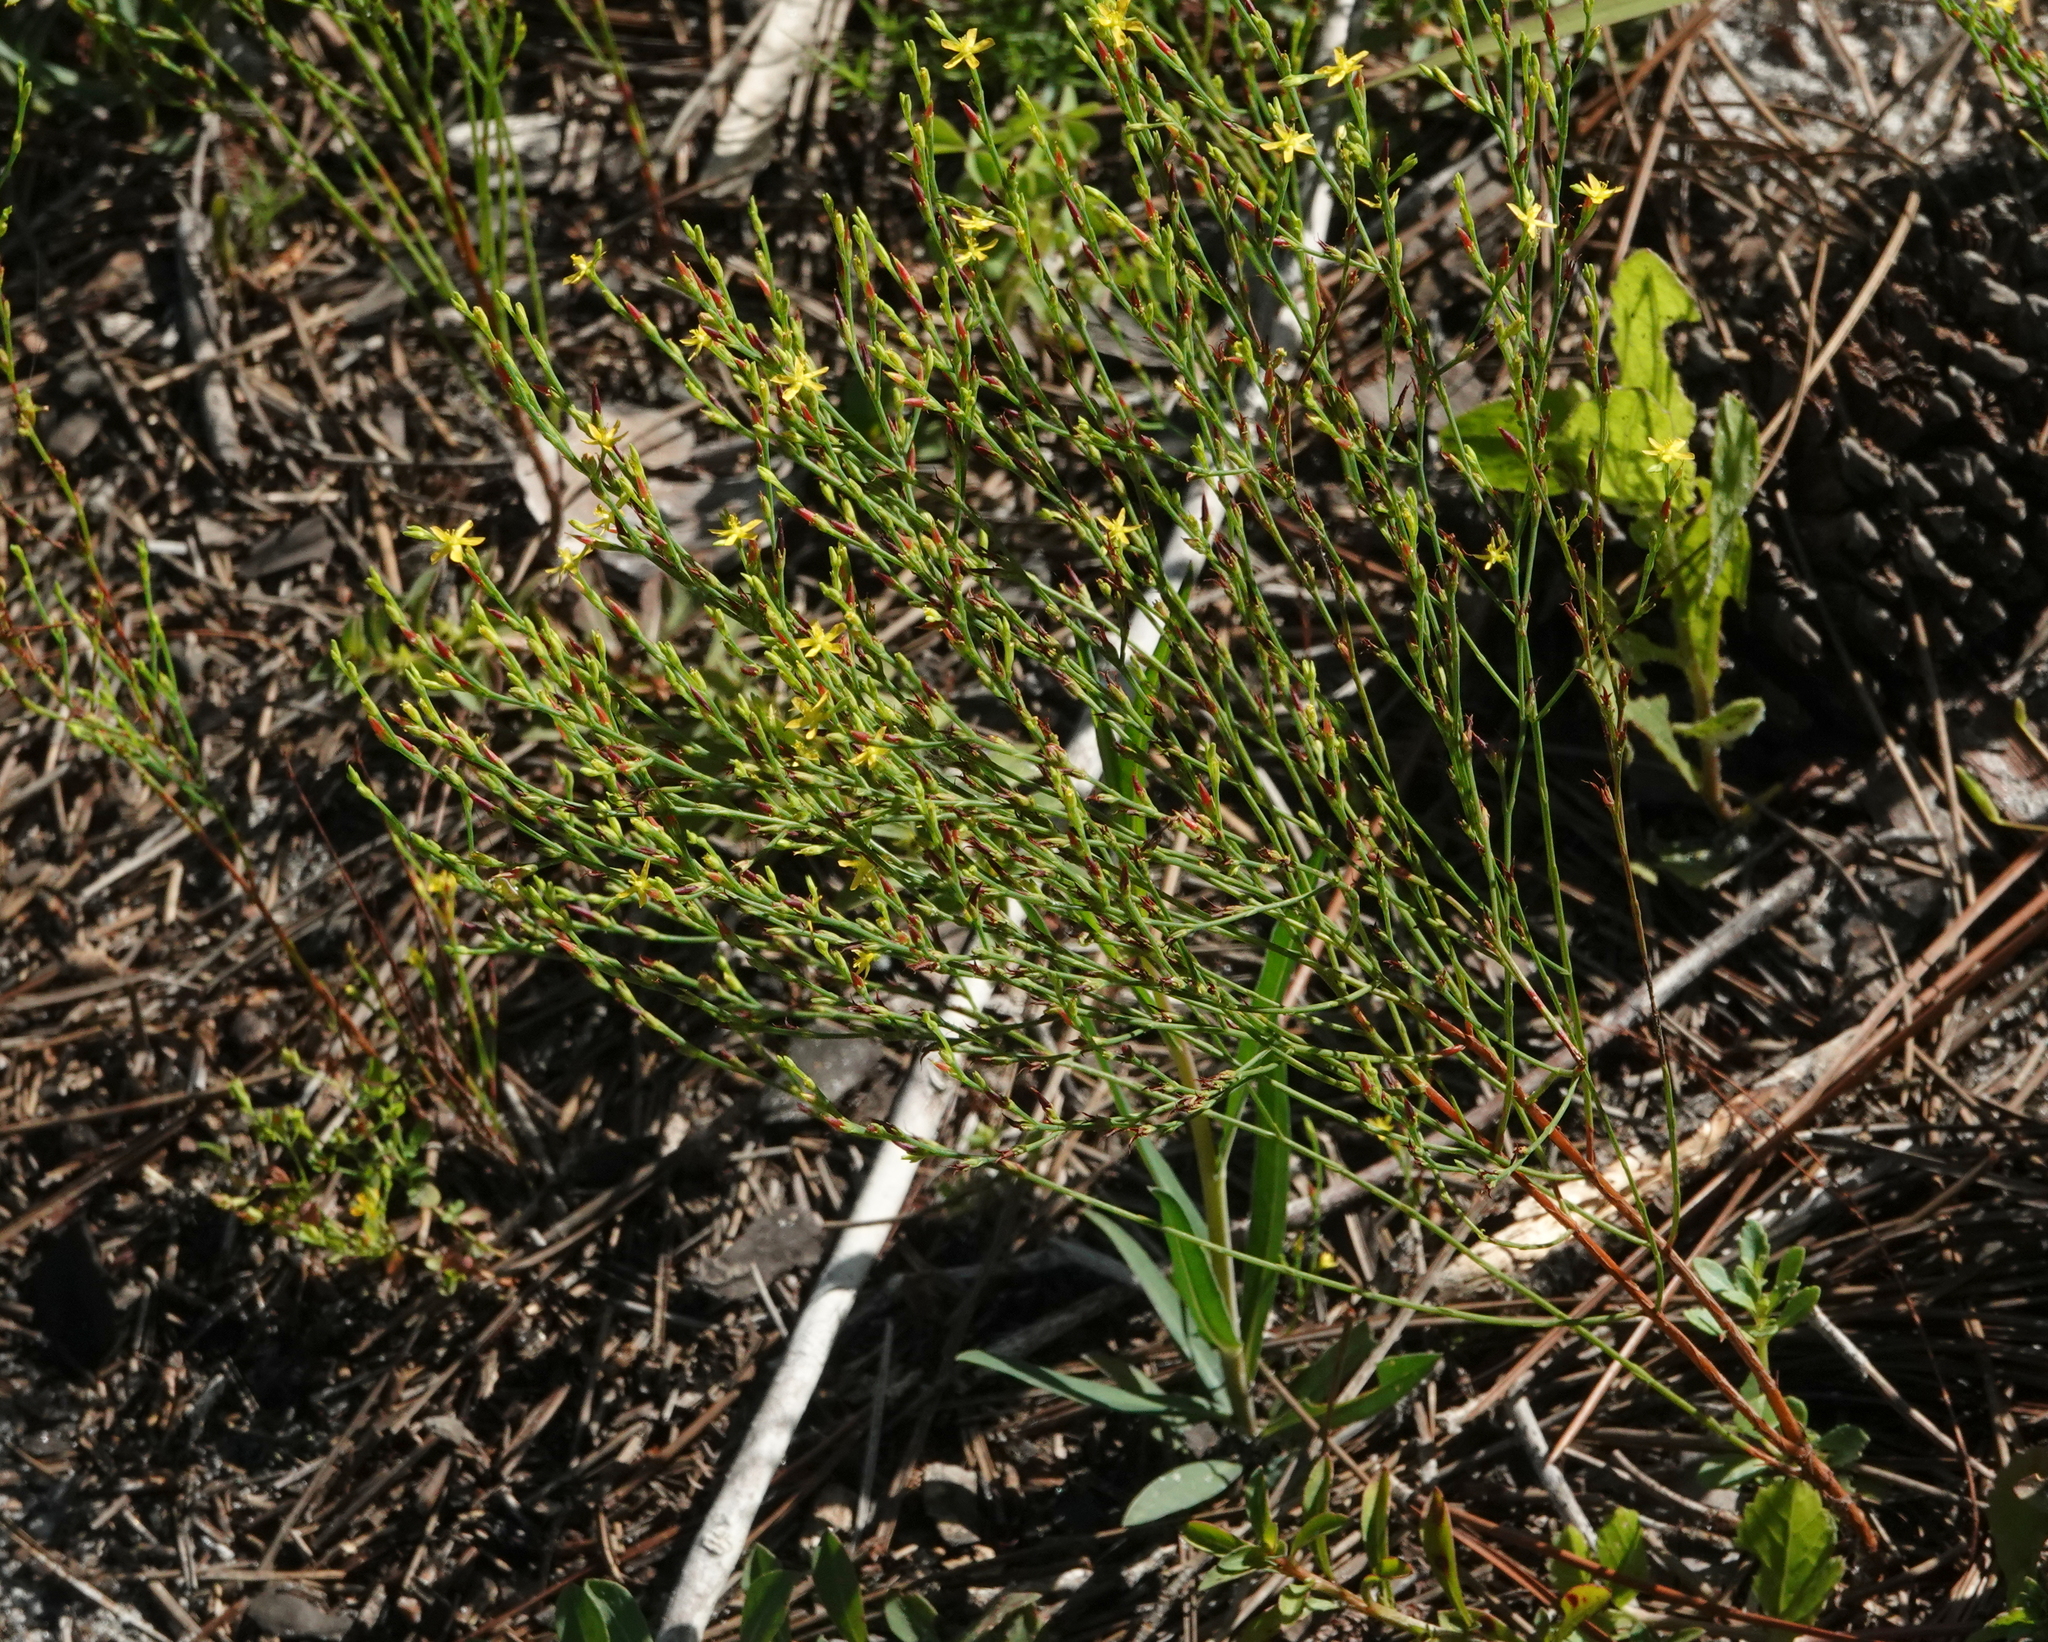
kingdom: Plantae
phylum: Tracheophyta
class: Magnoliopsida
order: Malpighiales
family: Hypericaceae
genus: Hypericum
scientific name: Hypericum gentianoides
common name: Gentian-leaved st. john's-wort
